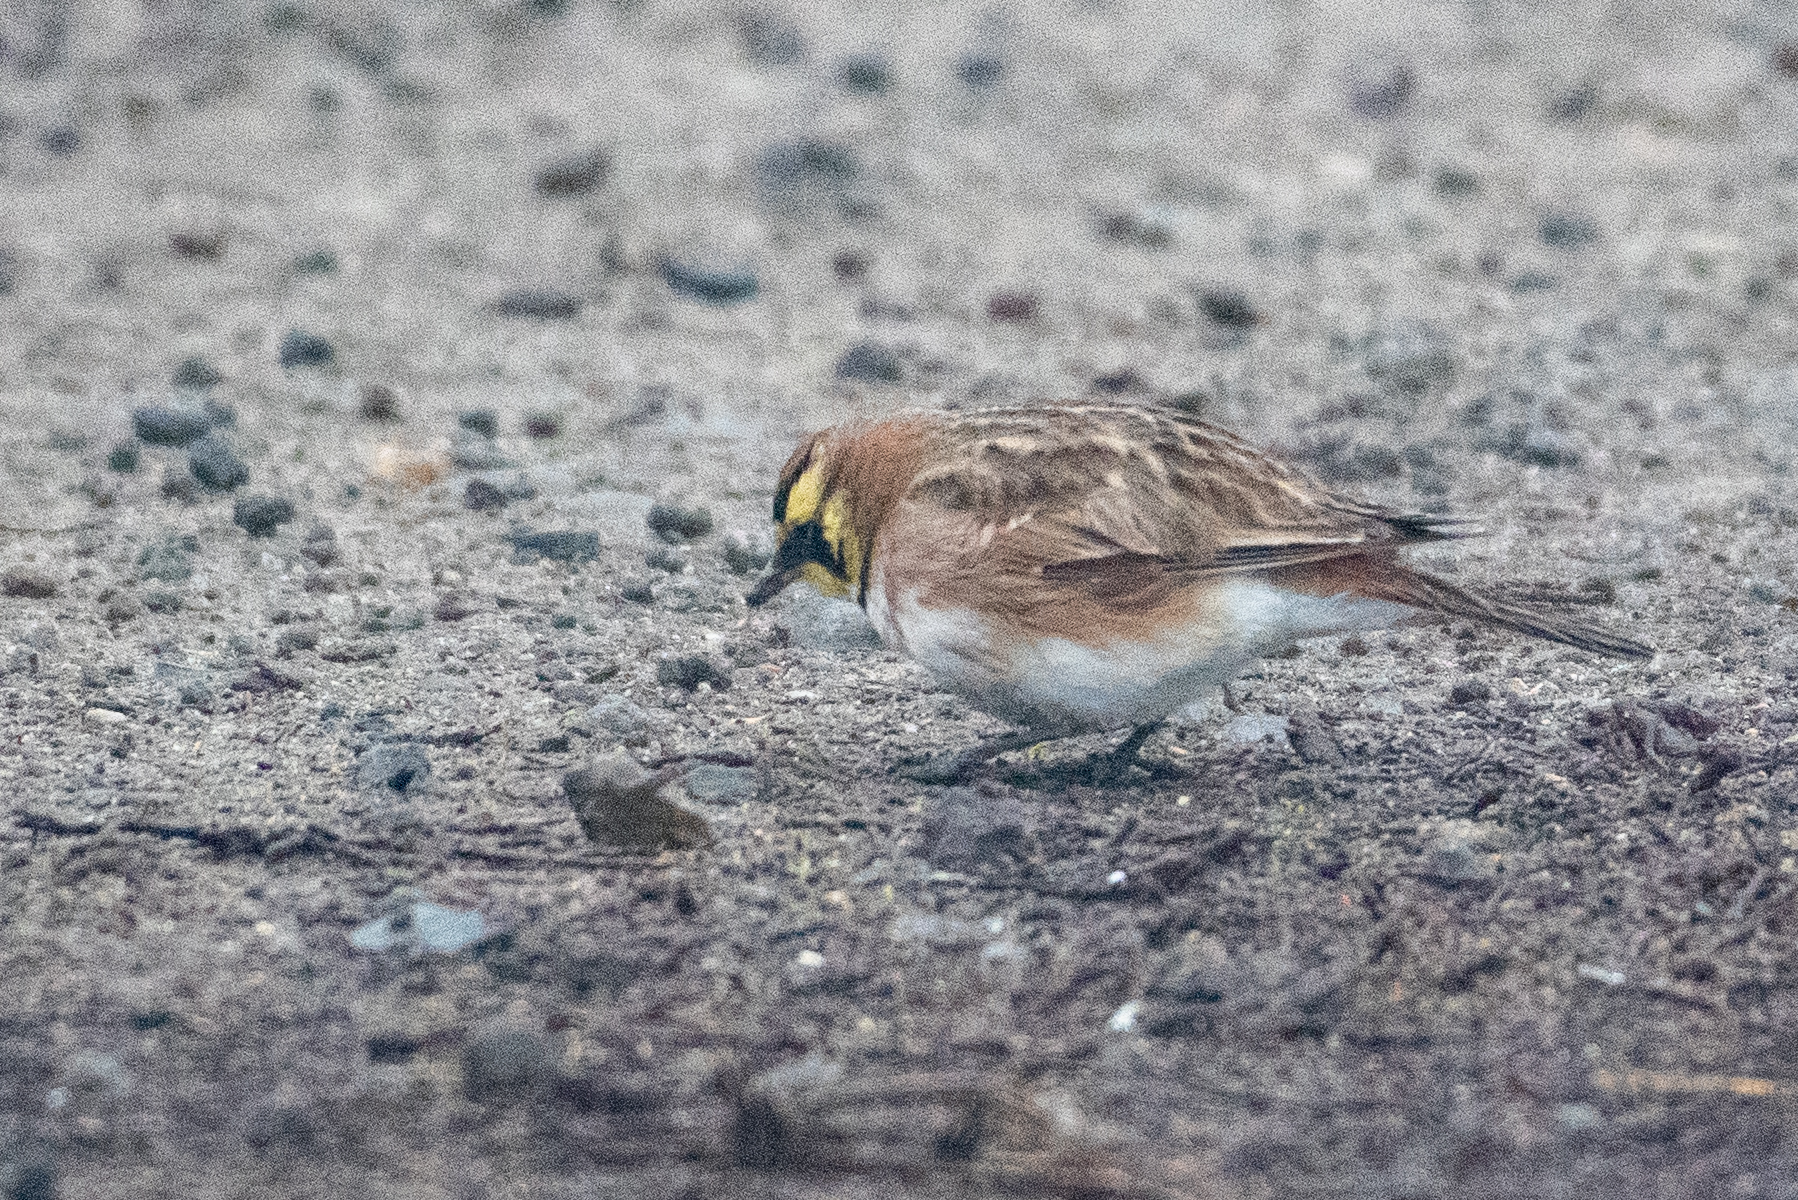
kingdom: Animalia
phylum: Chordata
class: Aves
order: Passeriformes
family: Alaudidae
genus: Eremophila
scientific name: Eremophila alpestris
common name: Horned lark
